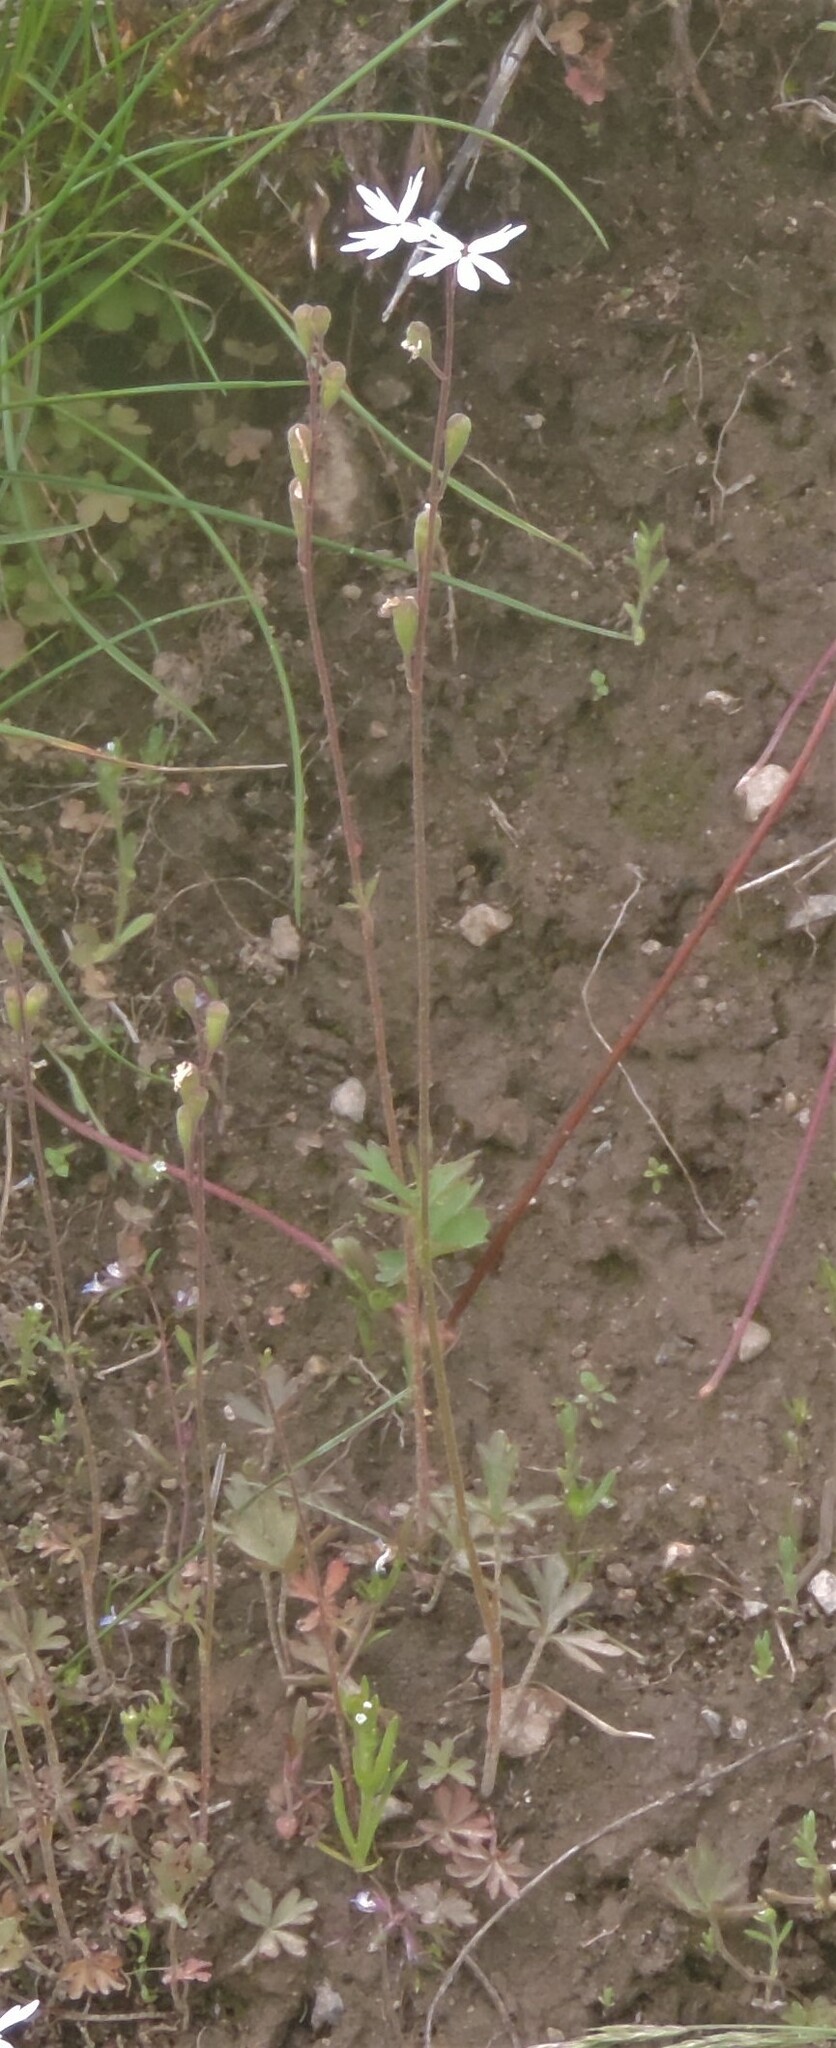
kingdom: Plantae
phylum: Tracheophyta
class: Magnoliopsida
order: Saxifragales
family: Saxifragaceae
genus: Lithophragma
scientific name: Lithophragma parviflorum
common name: Small-flowered fringe-cup
